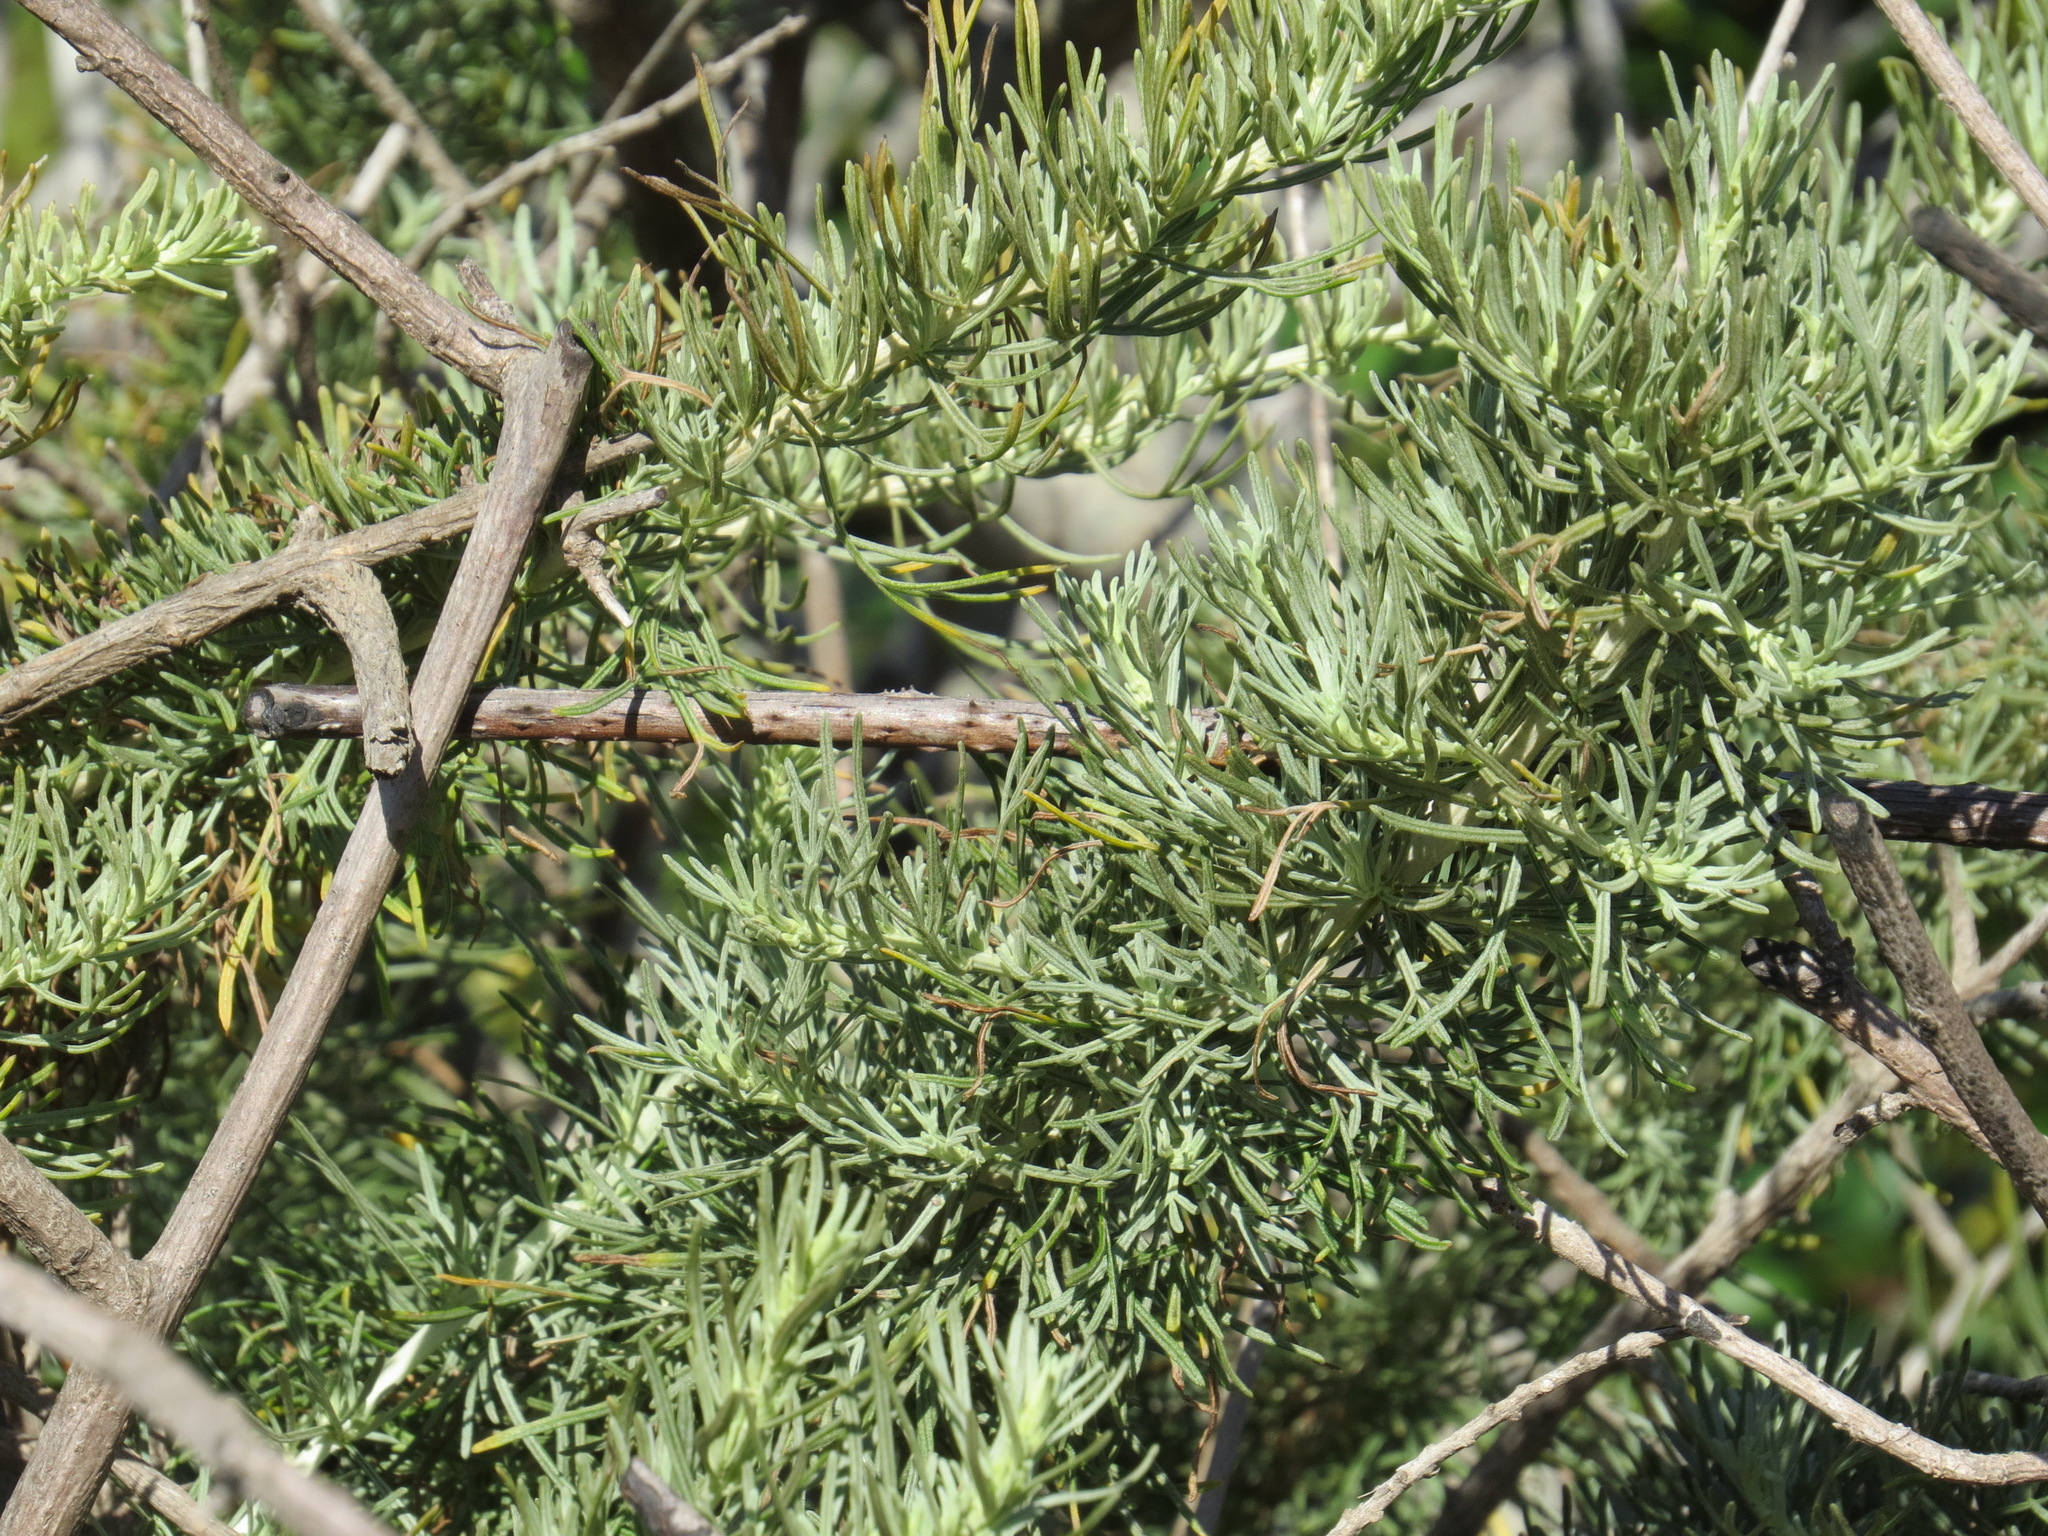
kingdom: Plantae
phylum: Tracheophyta
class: Magnoliopsida
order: Asterales
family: Asteraceae
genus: Artemisia
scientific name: Artemisia californica
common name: California sagebrush
